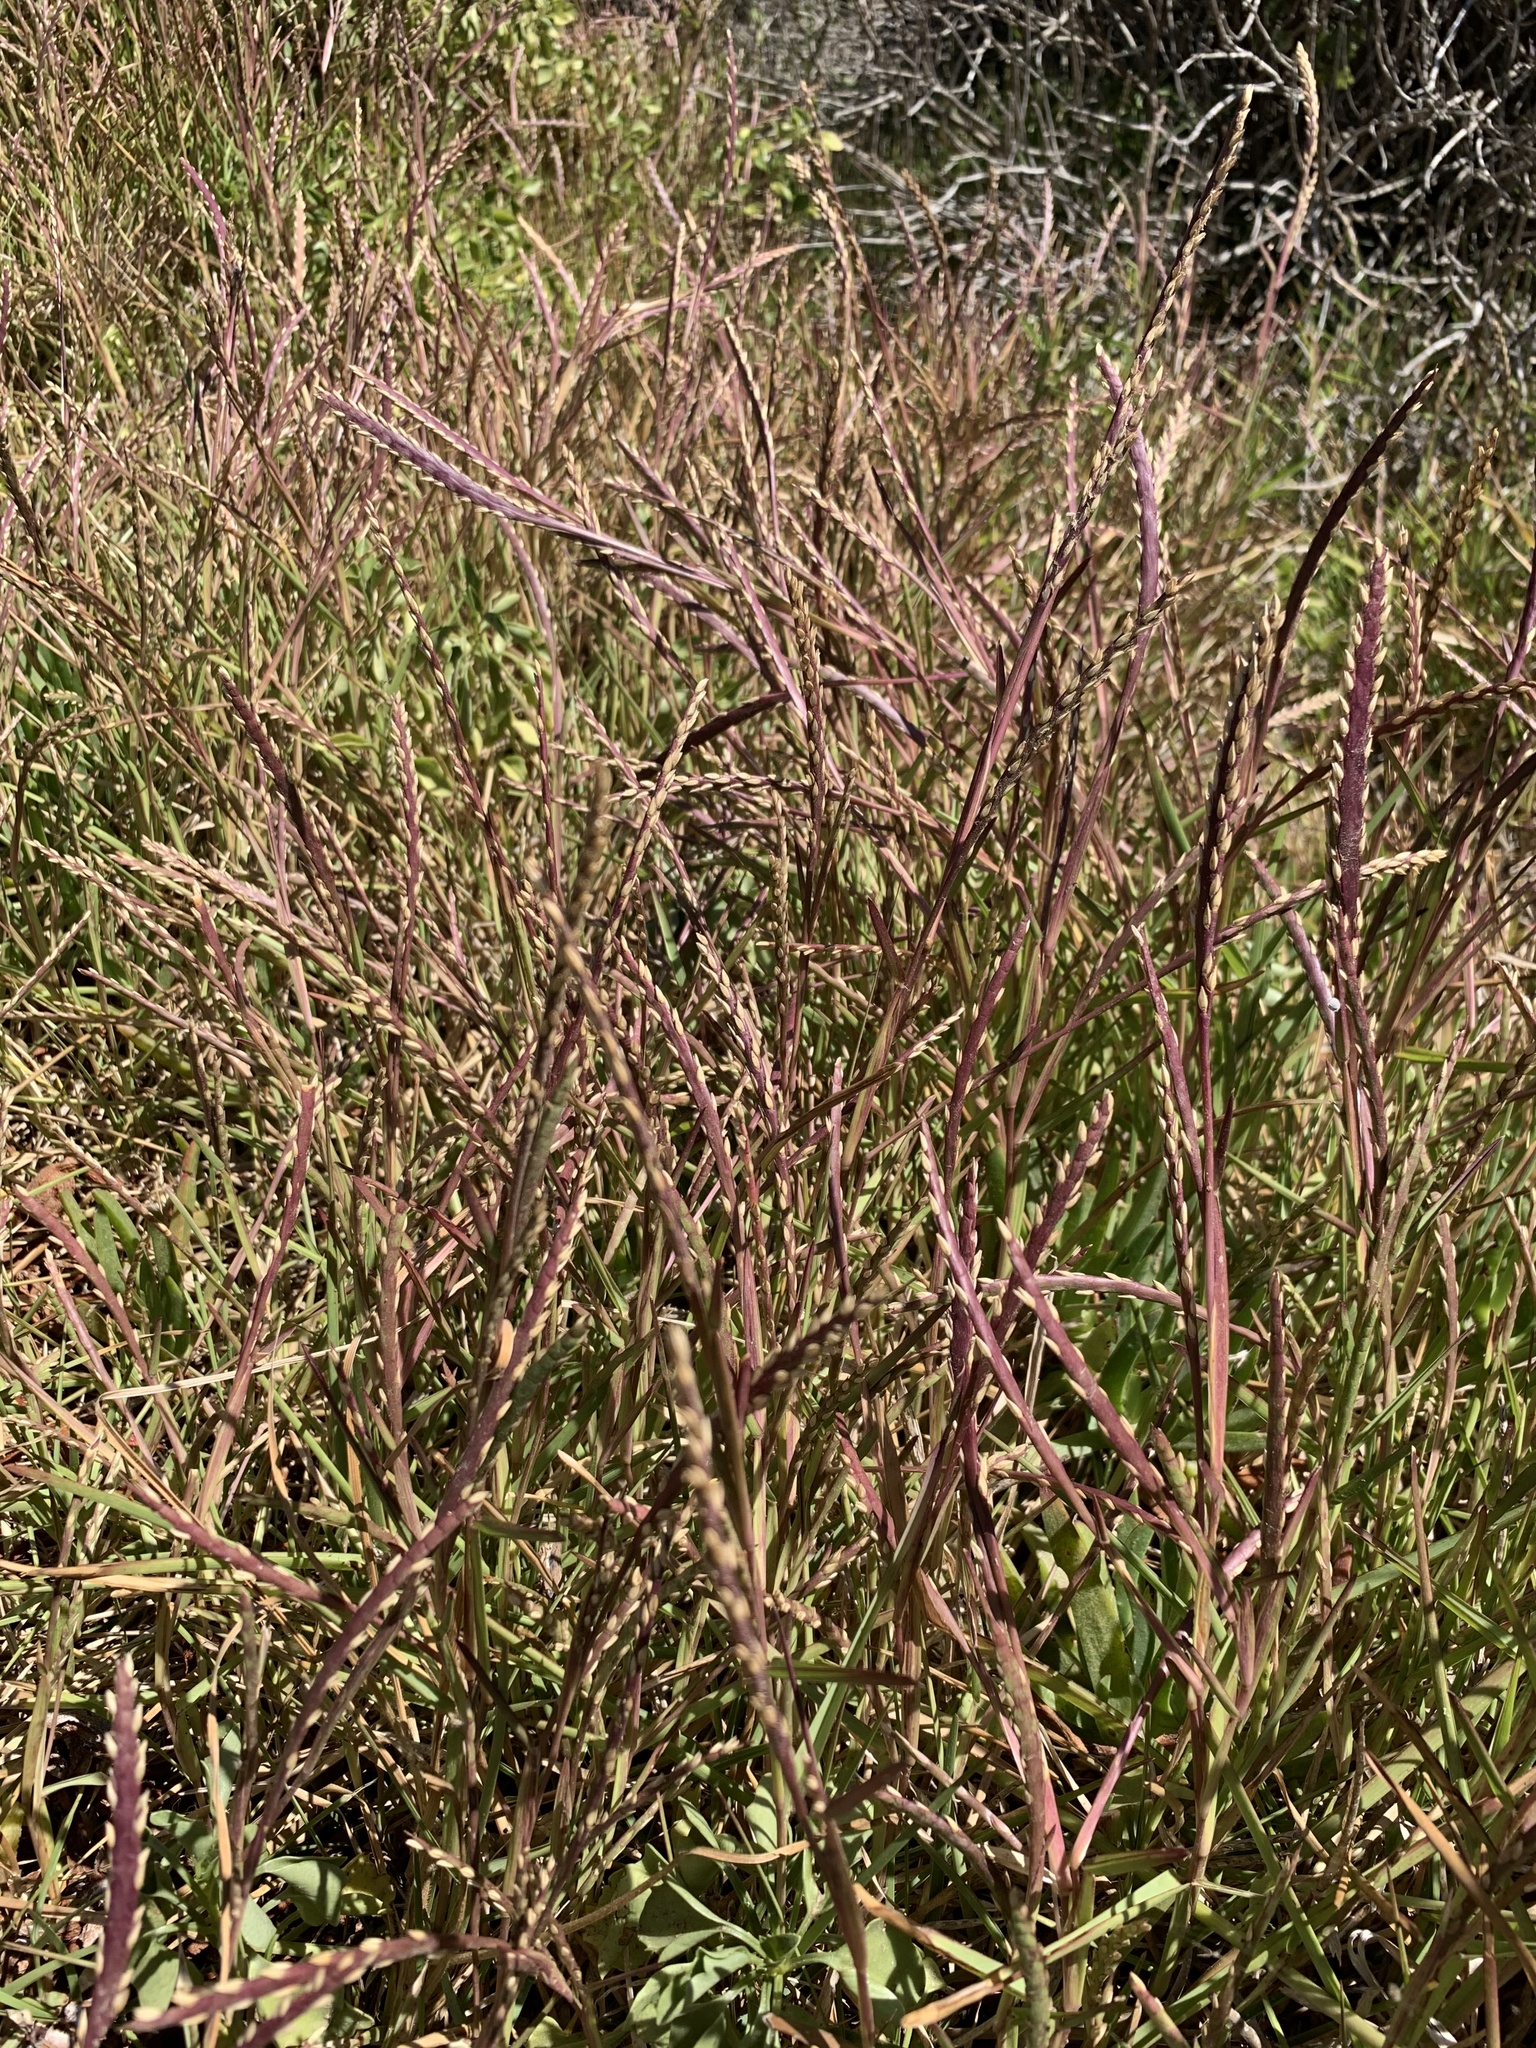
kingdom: Plantae
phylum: Tracheophyta
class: Liliopsida
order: Poales
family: Poaceae
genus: Stenotaphrum
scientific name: Stenotaphrum secundatum
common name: St. augustine grass
